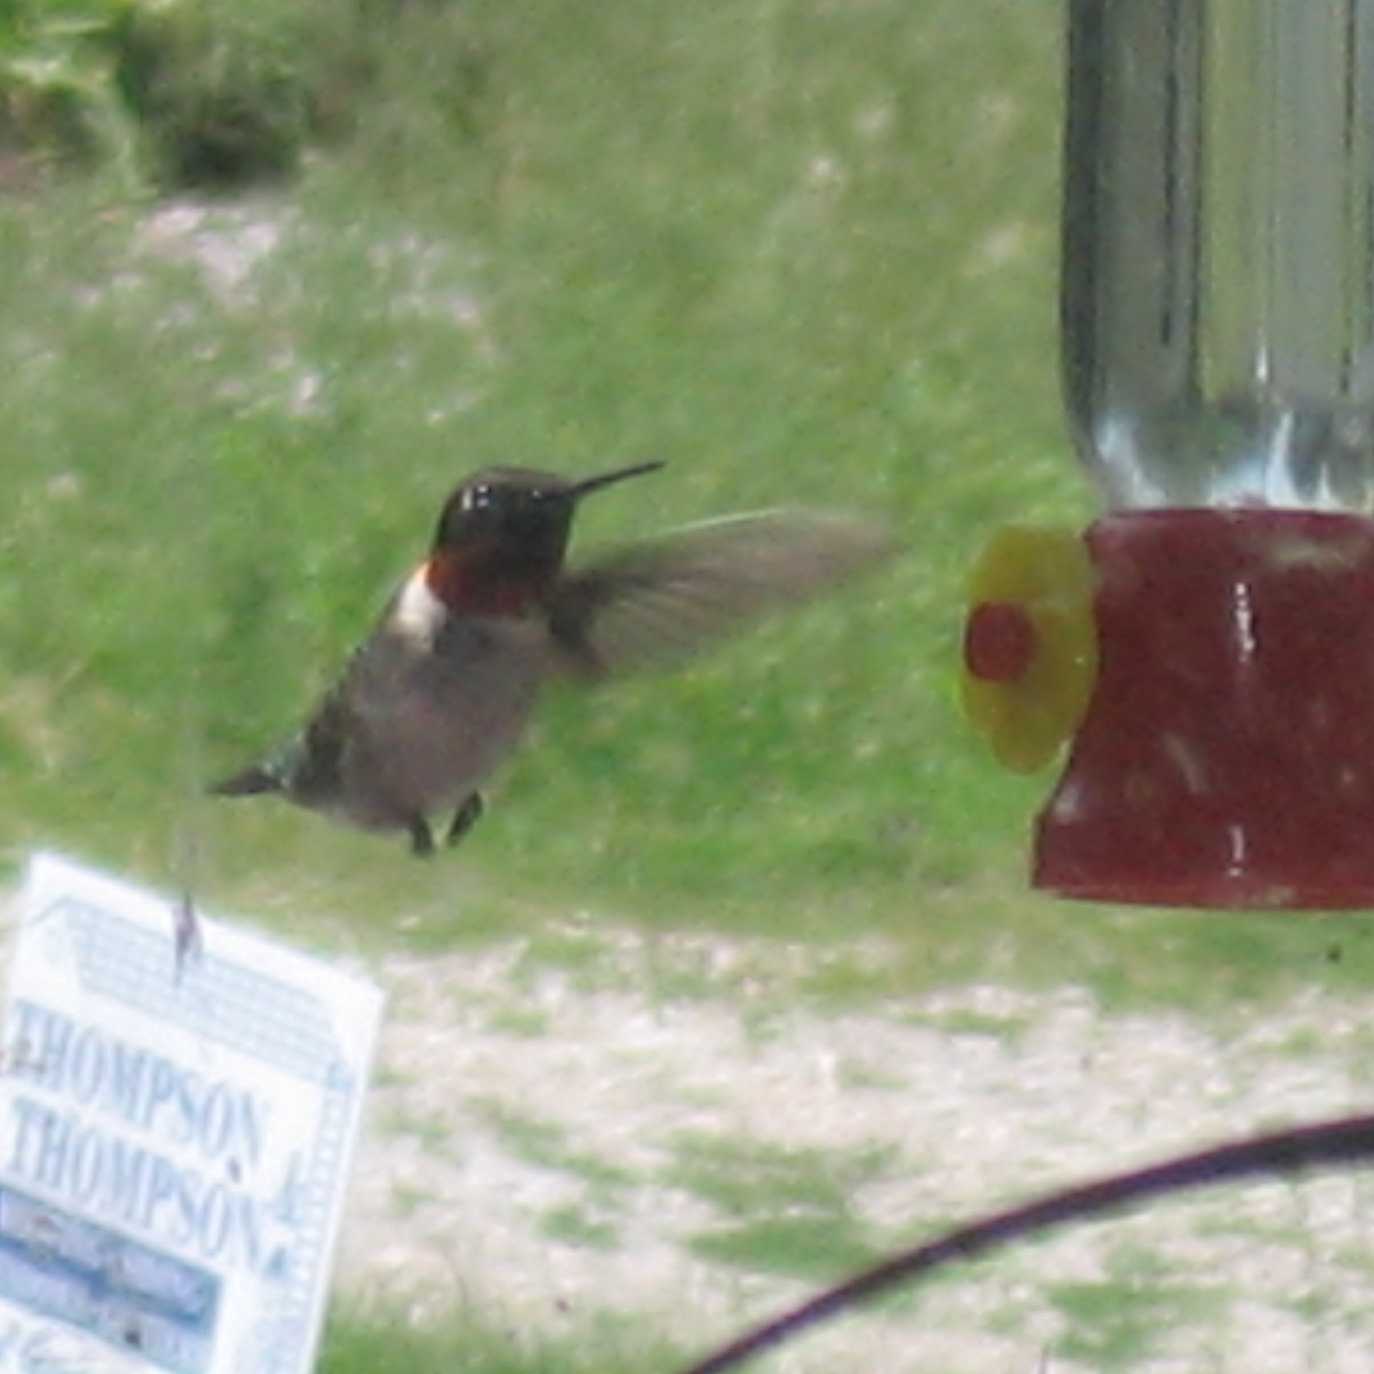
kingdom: Animalia
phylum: Chordata
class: Aves
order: Apodiformes
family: Trochilidae
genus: Archilochus
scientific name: Archilochus colubris
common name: Ruby-throated hummingbird
